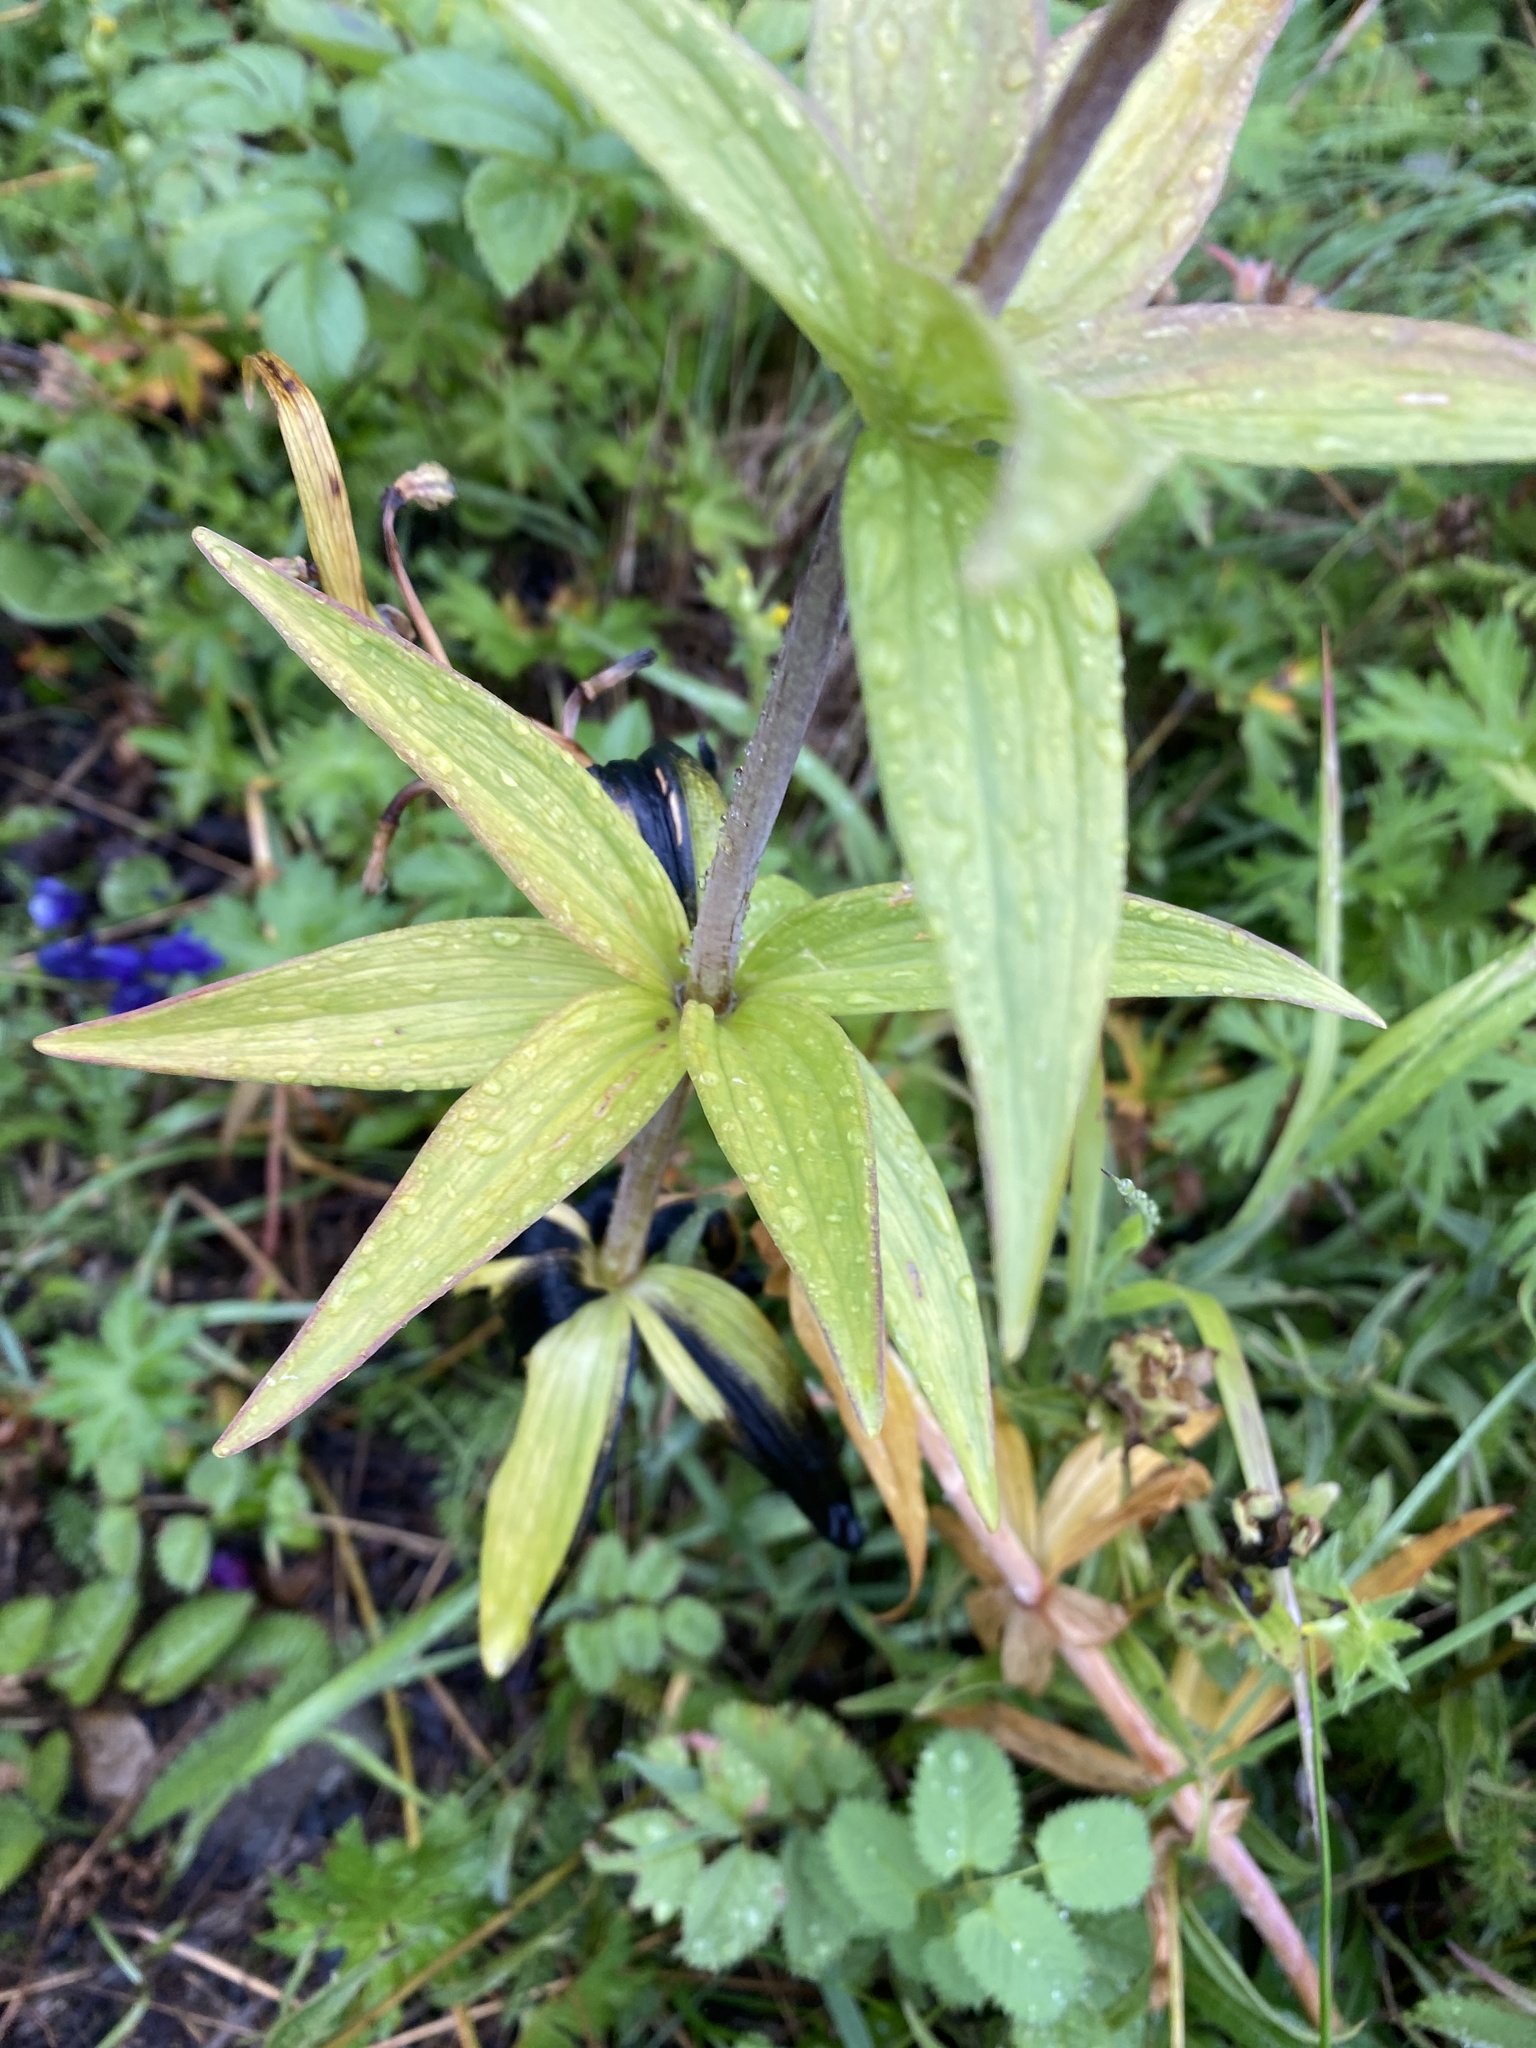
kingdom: Plantae
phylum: Tracheophyta
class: Liliopsida
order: Liliales
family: Liliaceae
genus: Fritillaria
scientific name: Fritillaria camschatcensis
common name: Kamchatka fritillary
